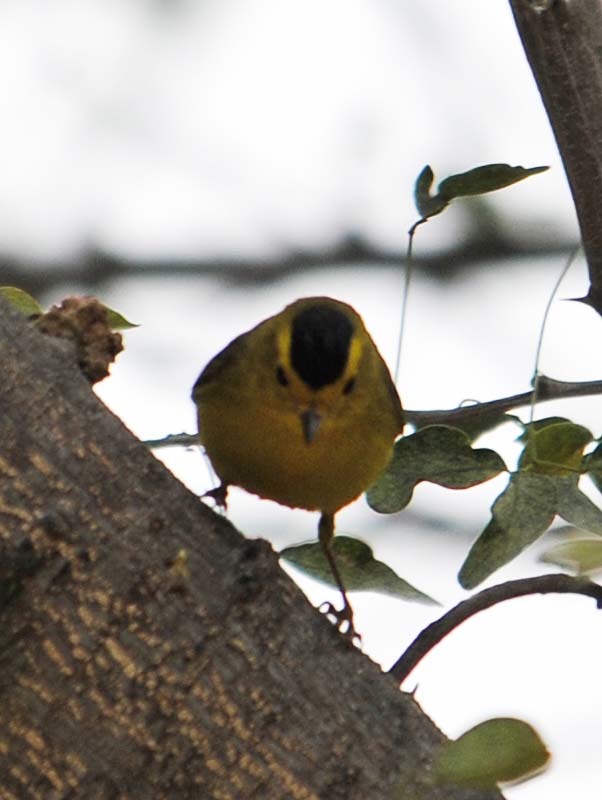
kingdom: Animalia
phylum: Chordata
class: Aves
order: Passeriformes
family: Parulidae
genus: Cardellina
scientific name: Cardellina pusilla
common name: Wilson's warbler
